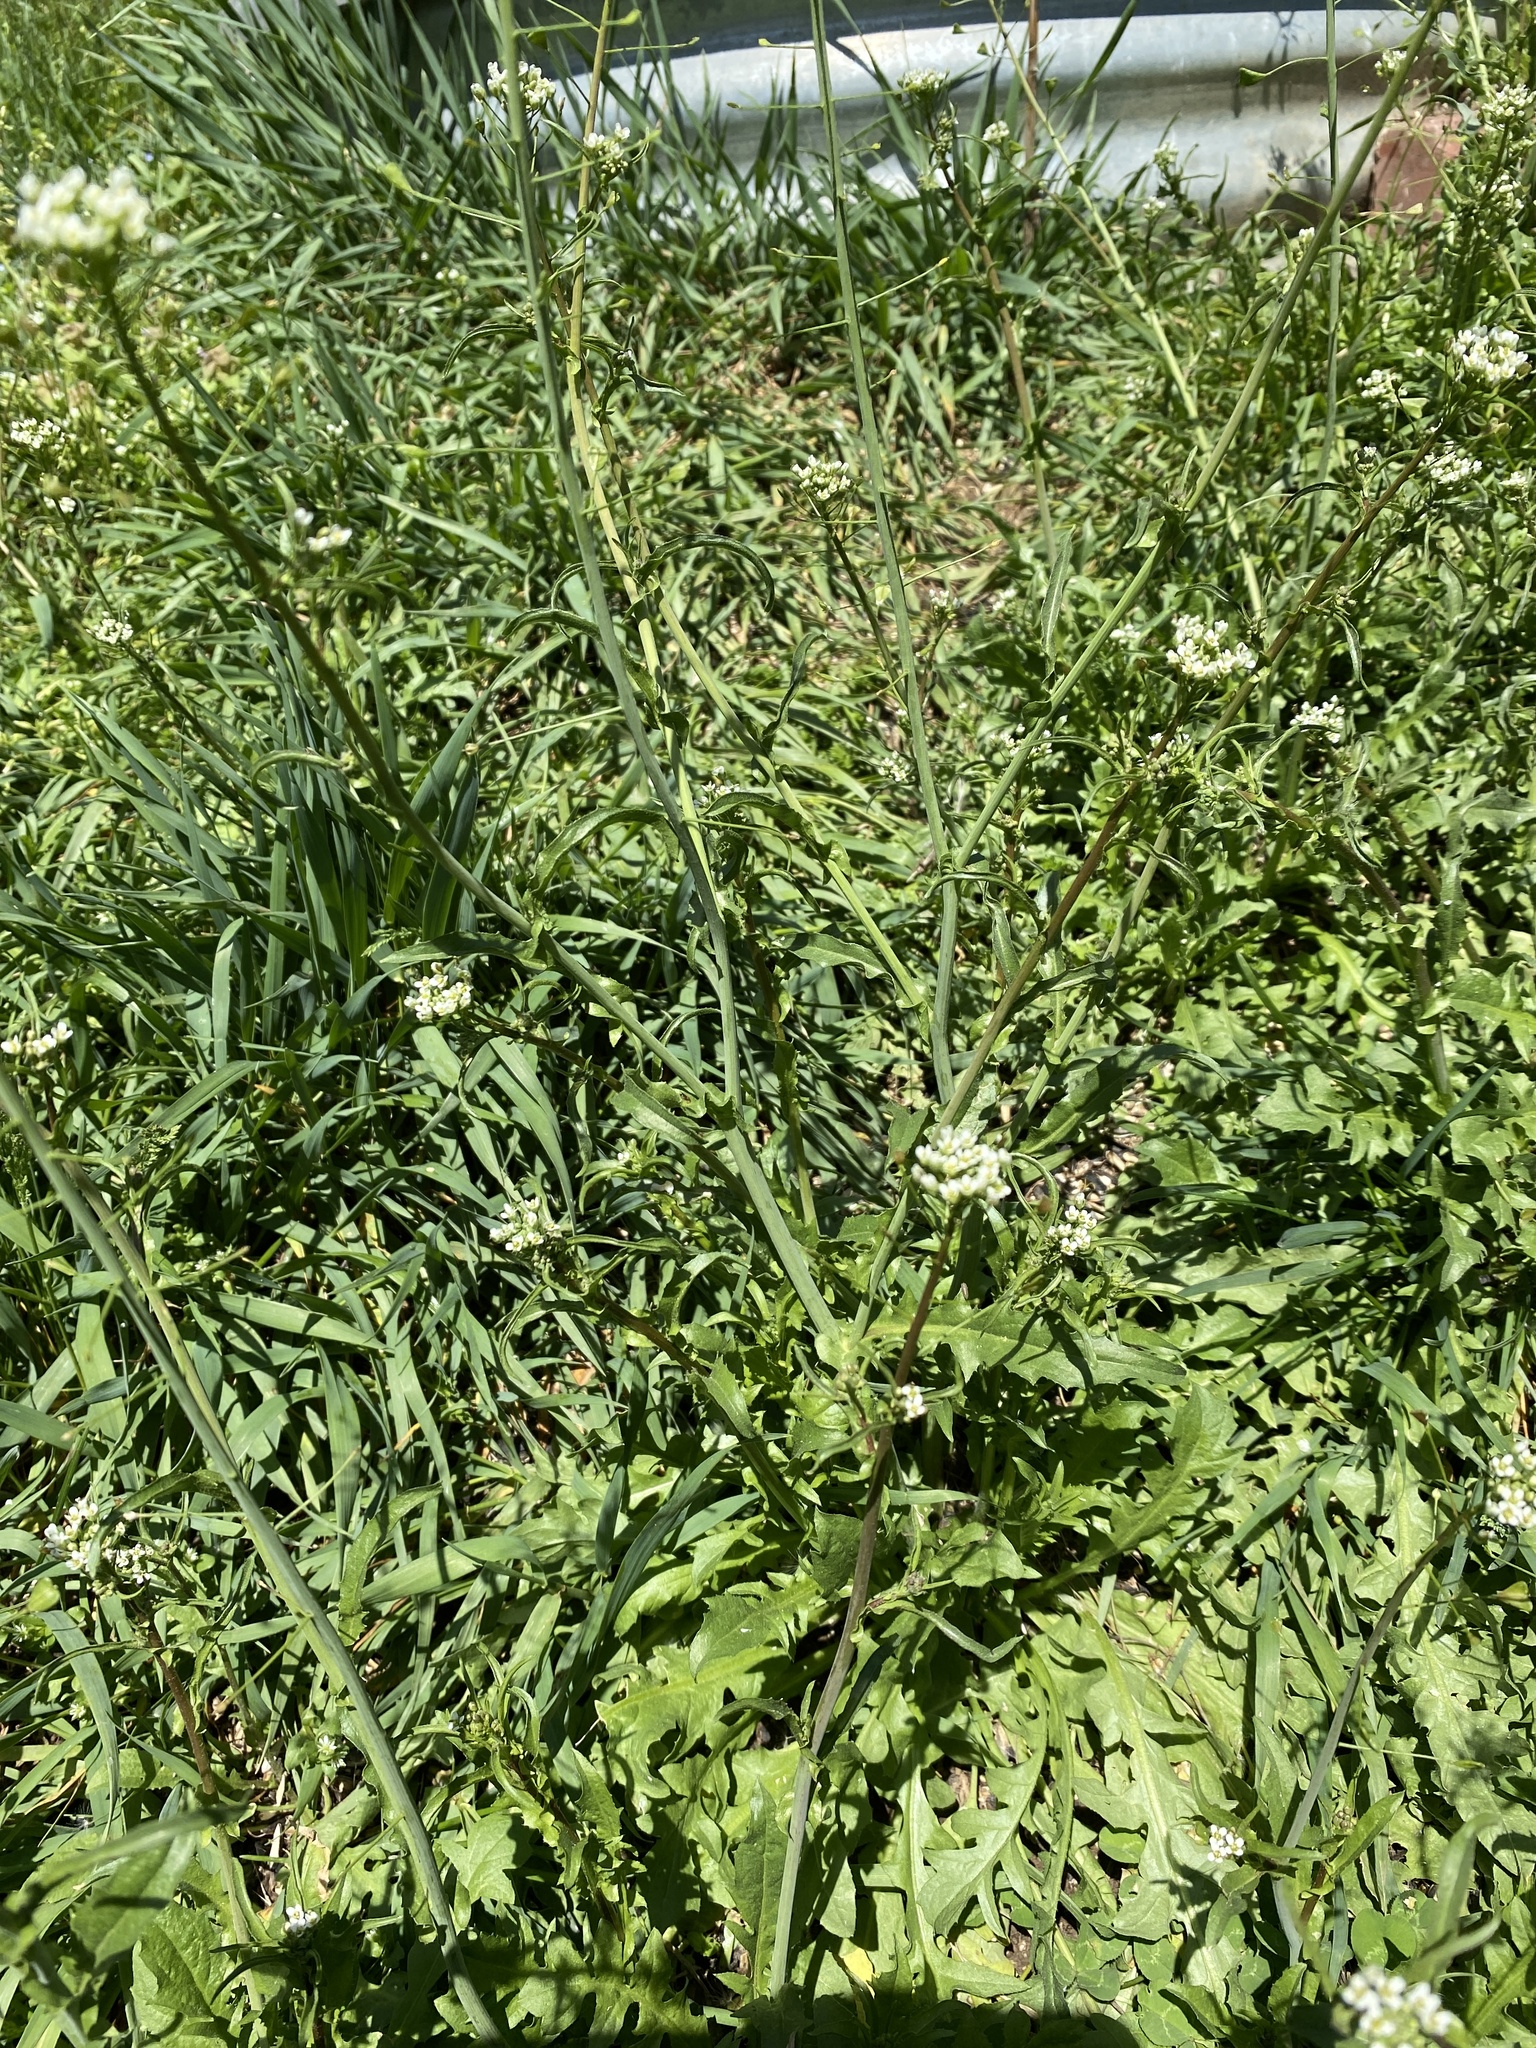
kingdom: Plantae
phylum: Tracheophyta
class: Magnoliopsida
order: Brassicales
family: Brassicaceae
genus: Capsella
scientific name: Capsella bursa-pastoris
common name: Shepherd's purse
